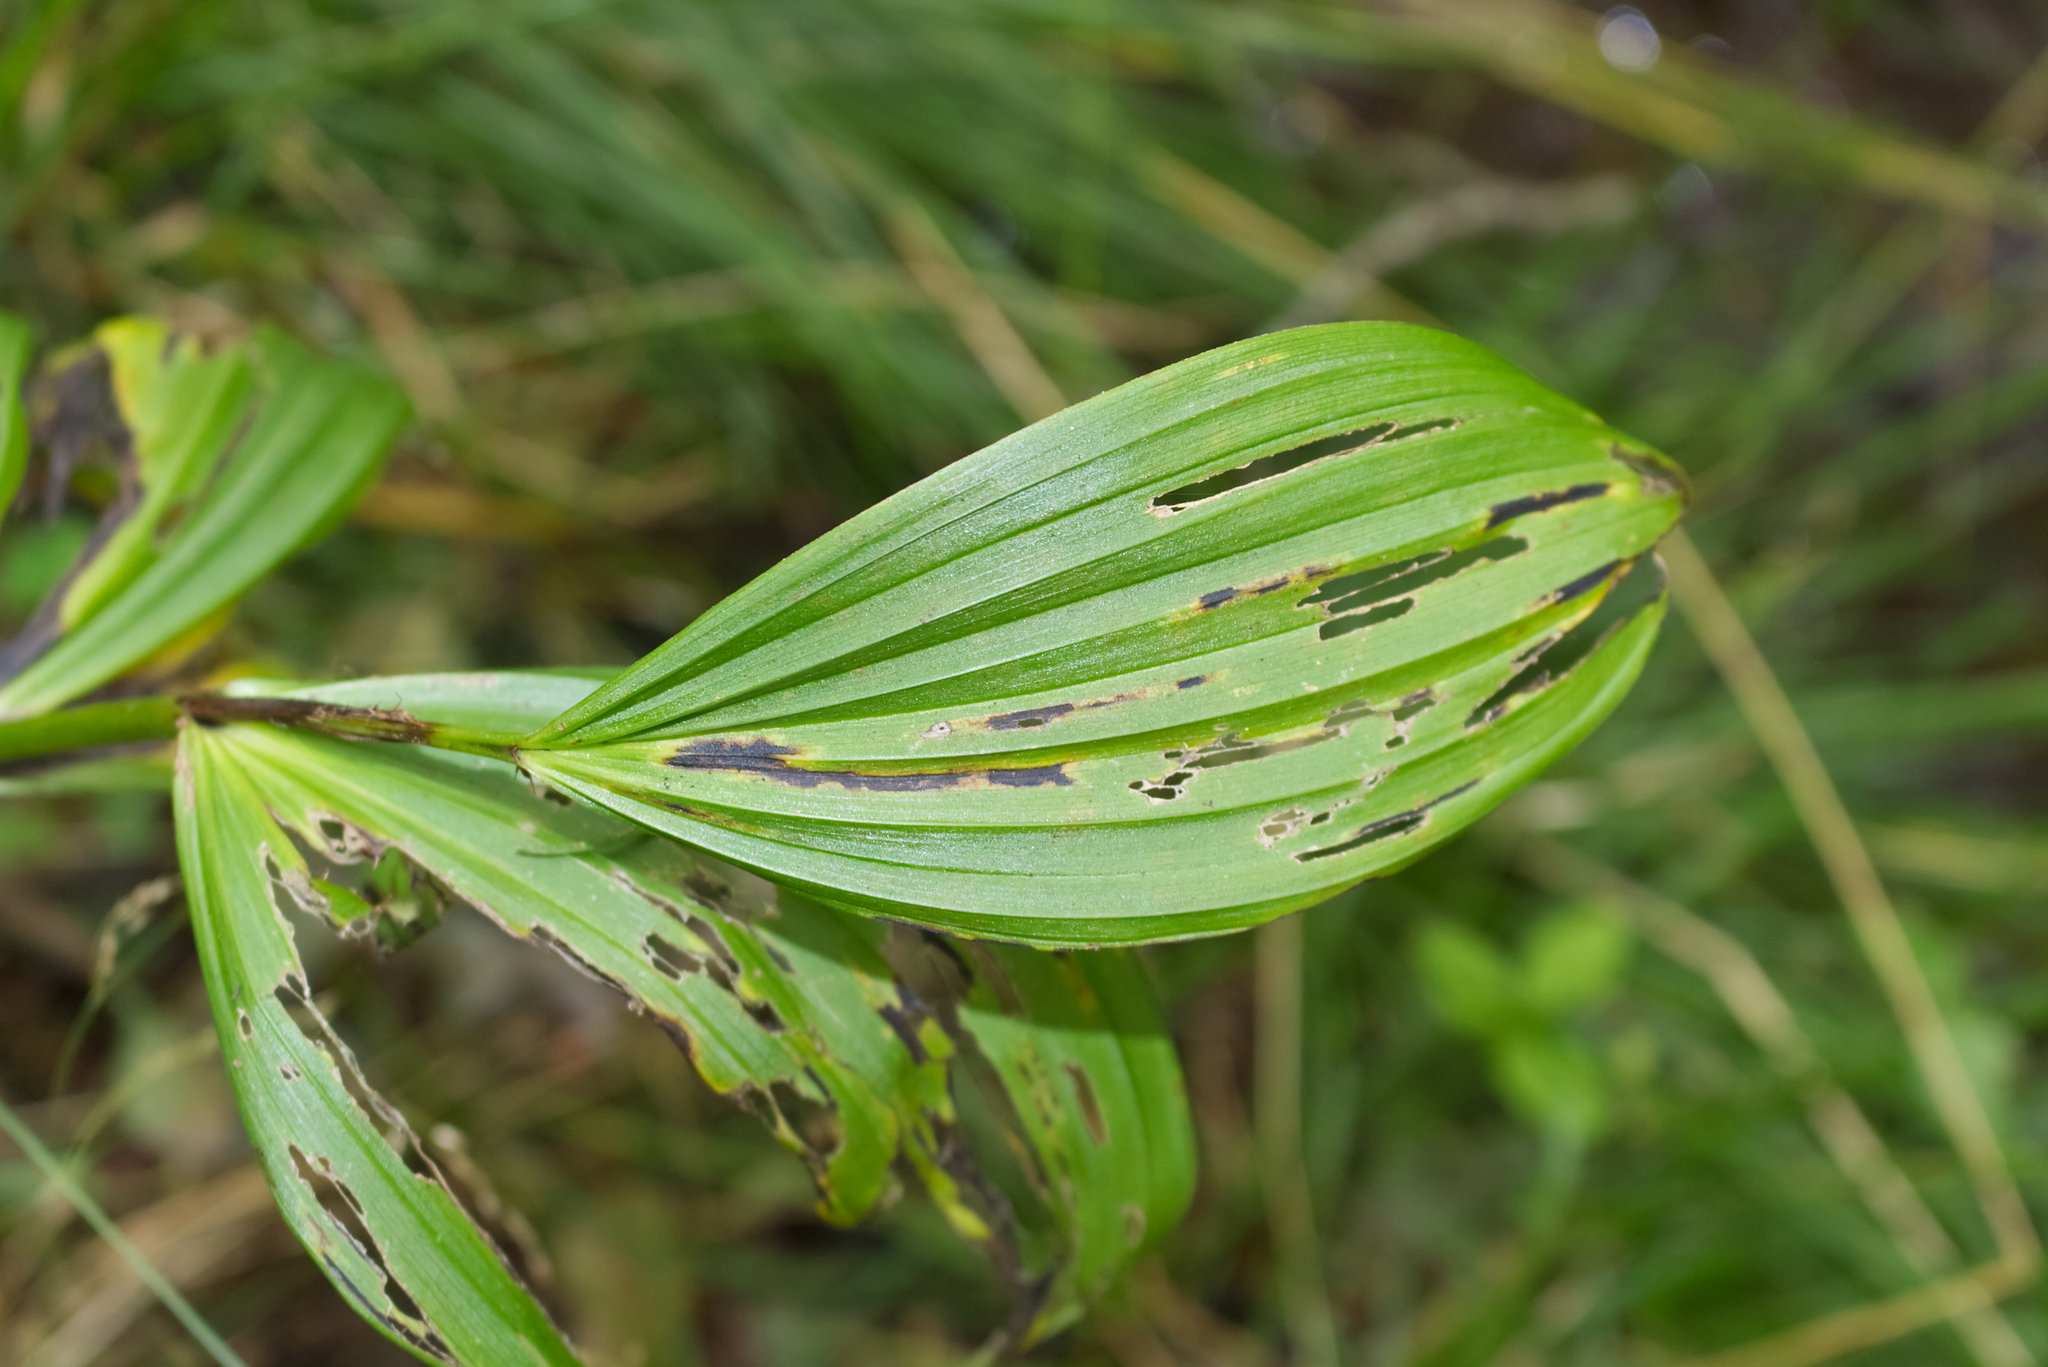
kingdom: Plantae
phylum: Tracheophyta
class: Liliopsida
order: Liliales
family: Melanthiaceae
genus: Veratrum
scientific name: Veratrum album
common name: White veratrum
